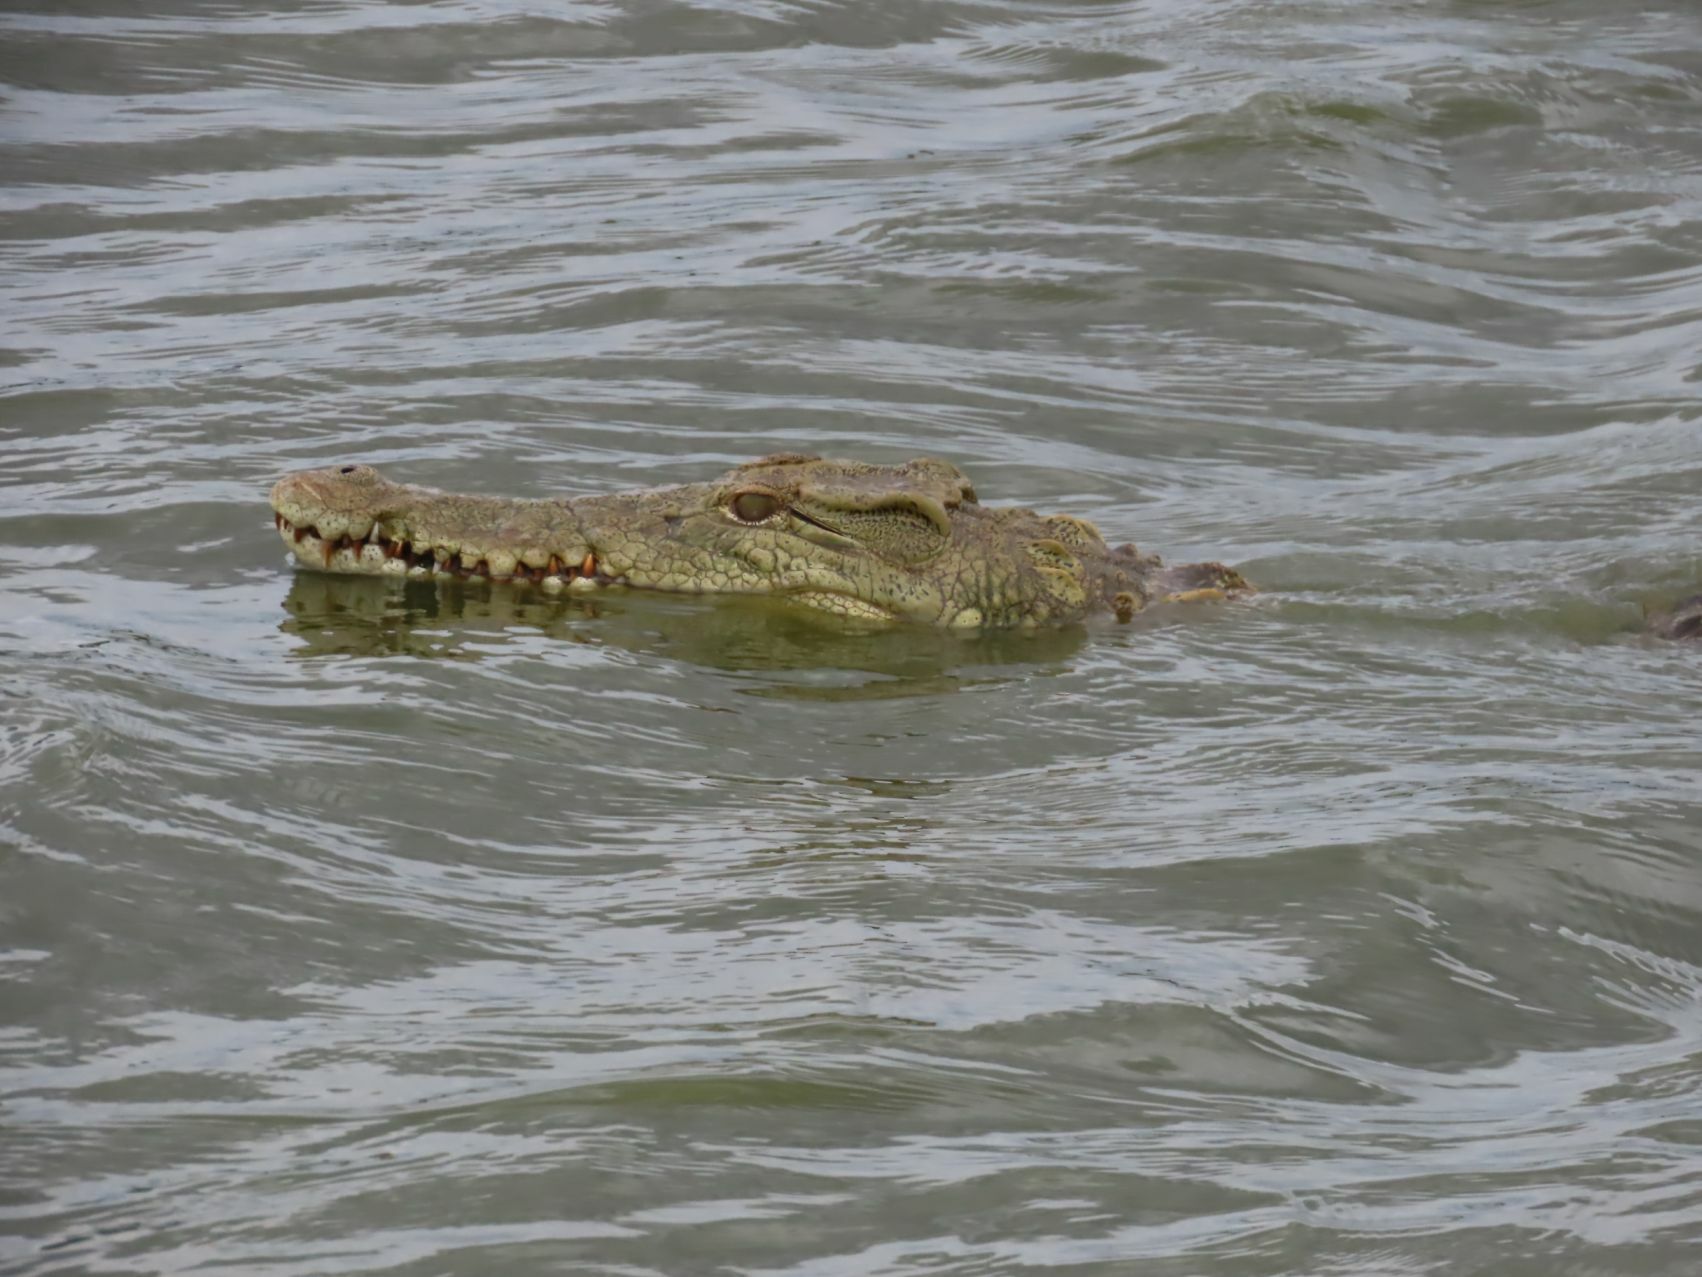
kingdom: Animalia
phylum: Chordata
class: Crocodylia
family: Crocodylidae
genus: Crocodylus
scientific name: Crocodylus niloticus
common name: Nile crocodile
